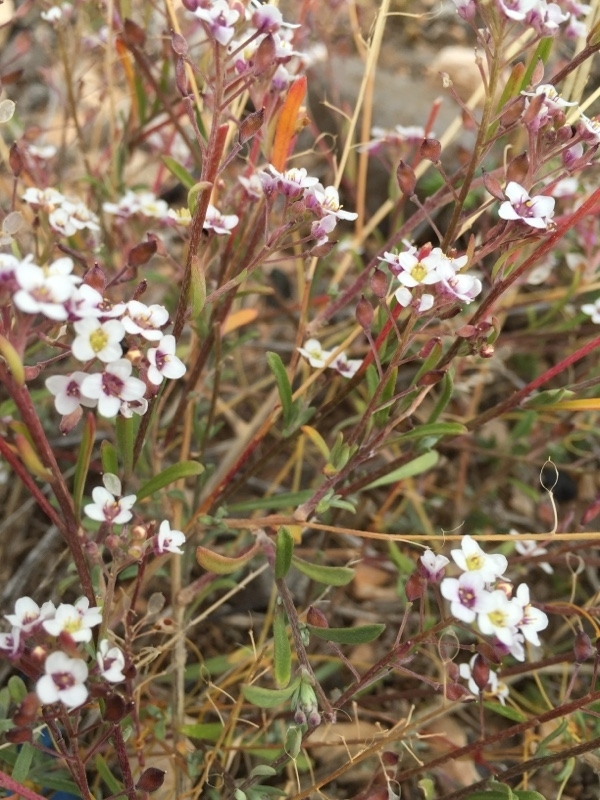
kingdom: Plantae
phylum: Tracheophyta
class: Magnoliopsida
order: Brassicales
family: Brassicaceae
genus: Lobularia
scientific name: Lobularia maritima
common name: Sweet alison
